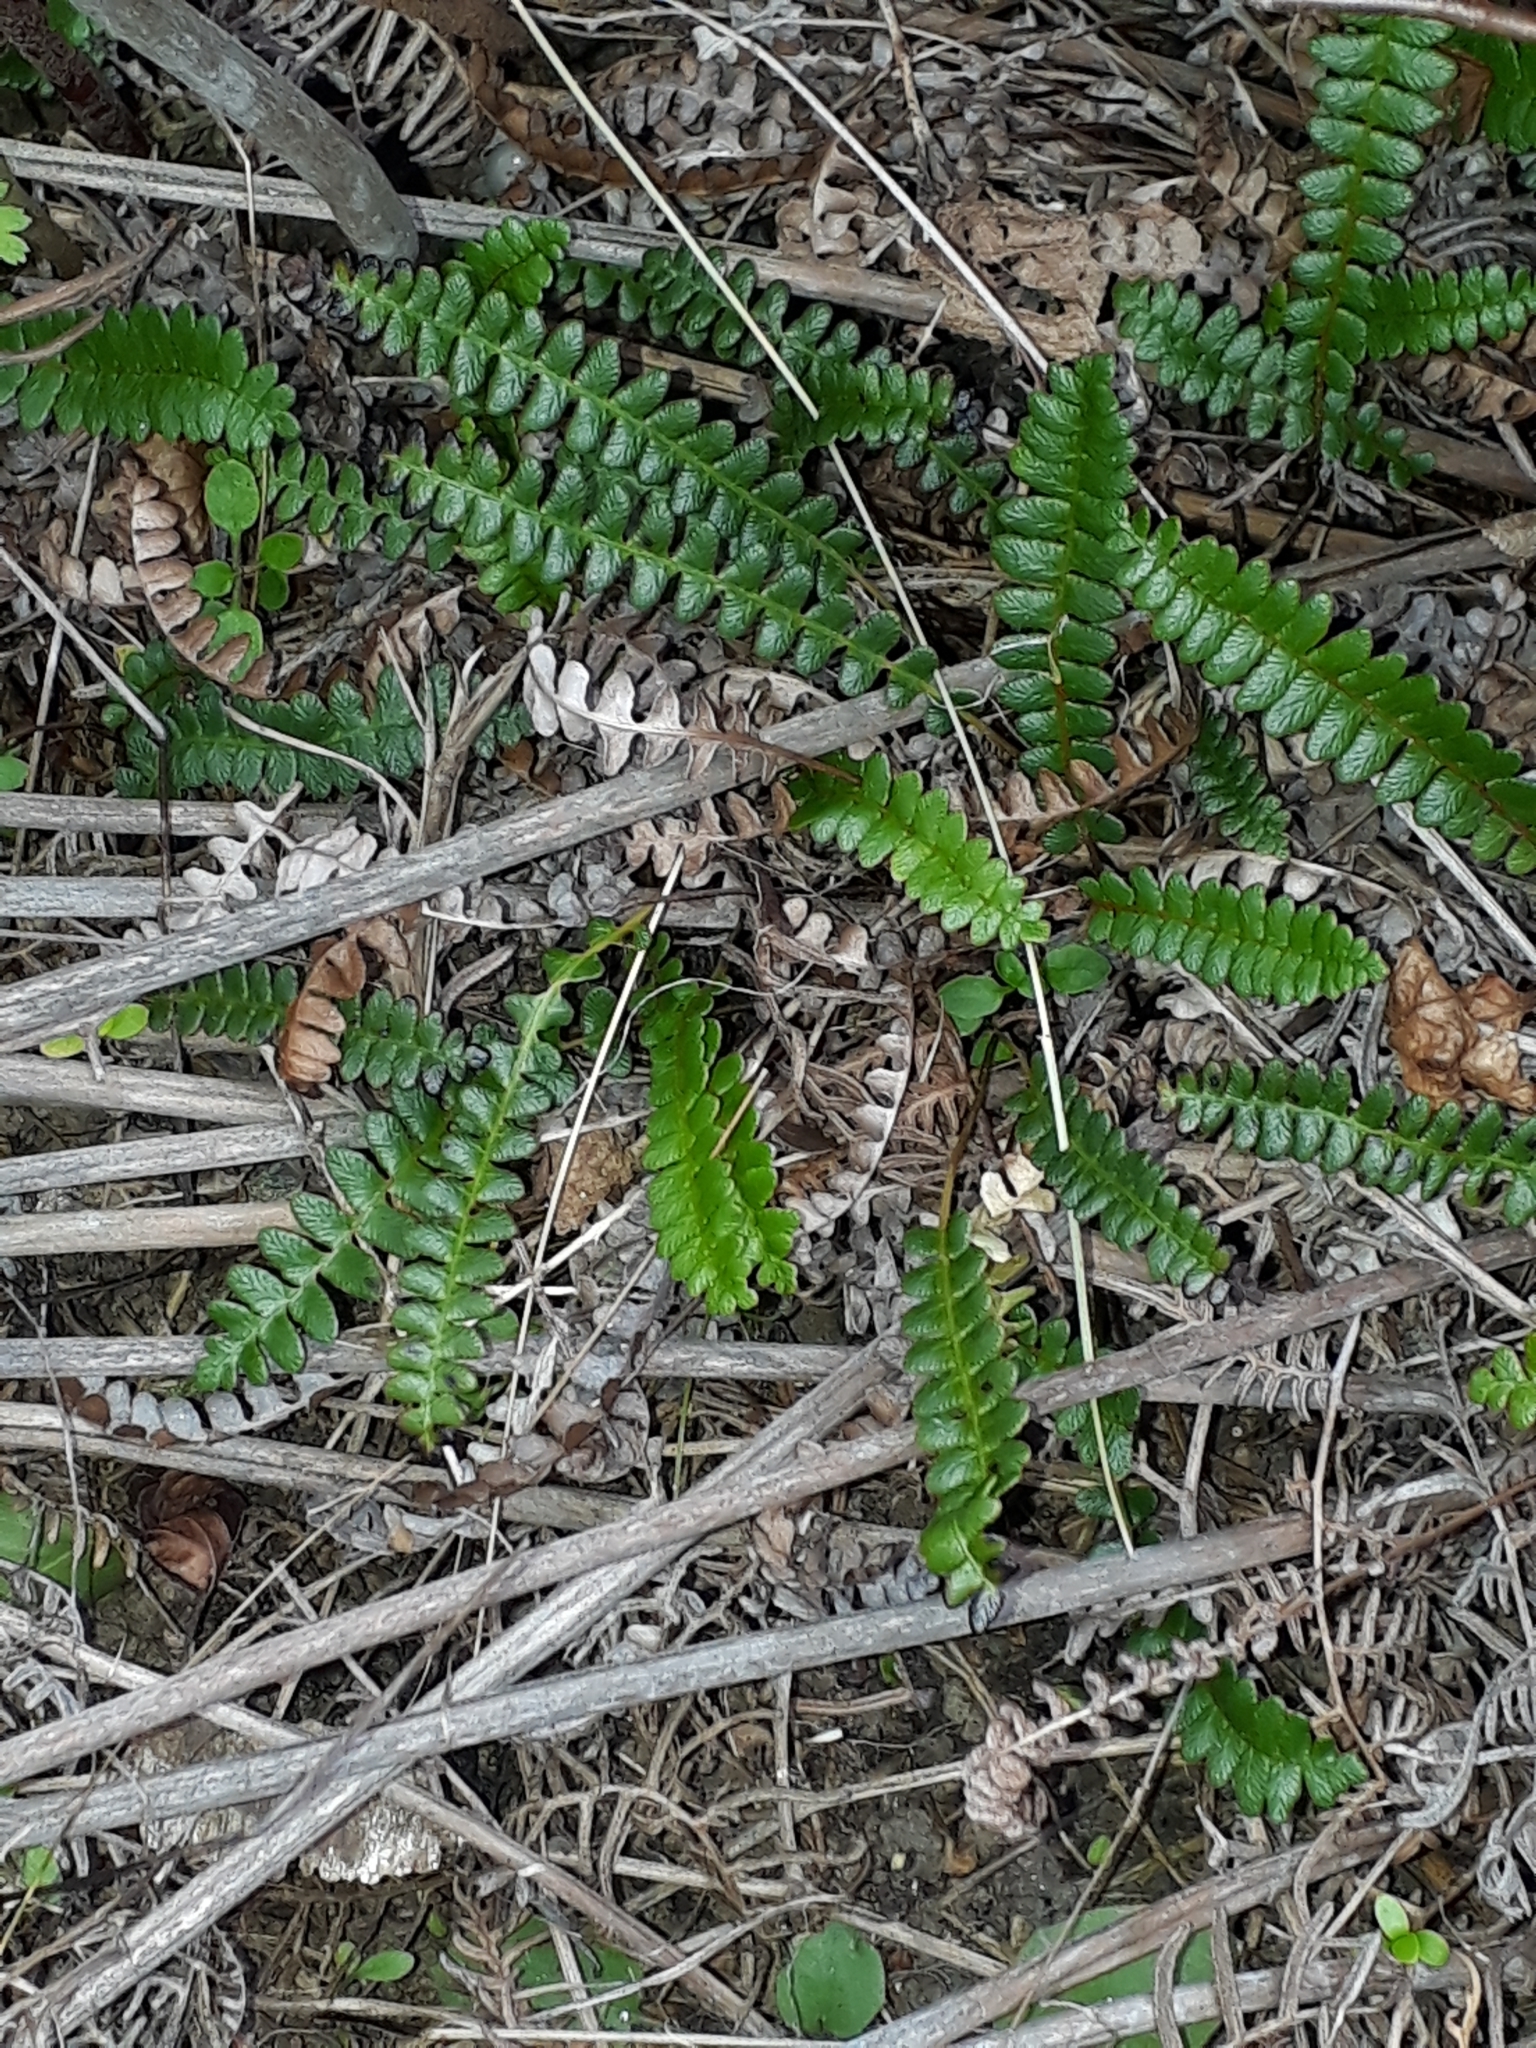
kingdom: Plantae
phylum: Tracheophyta
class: Polypodiopsida
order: Polypodiales
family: Blechnaceae
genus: Austroblechnum
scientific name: Austroblechnum penna-marina
